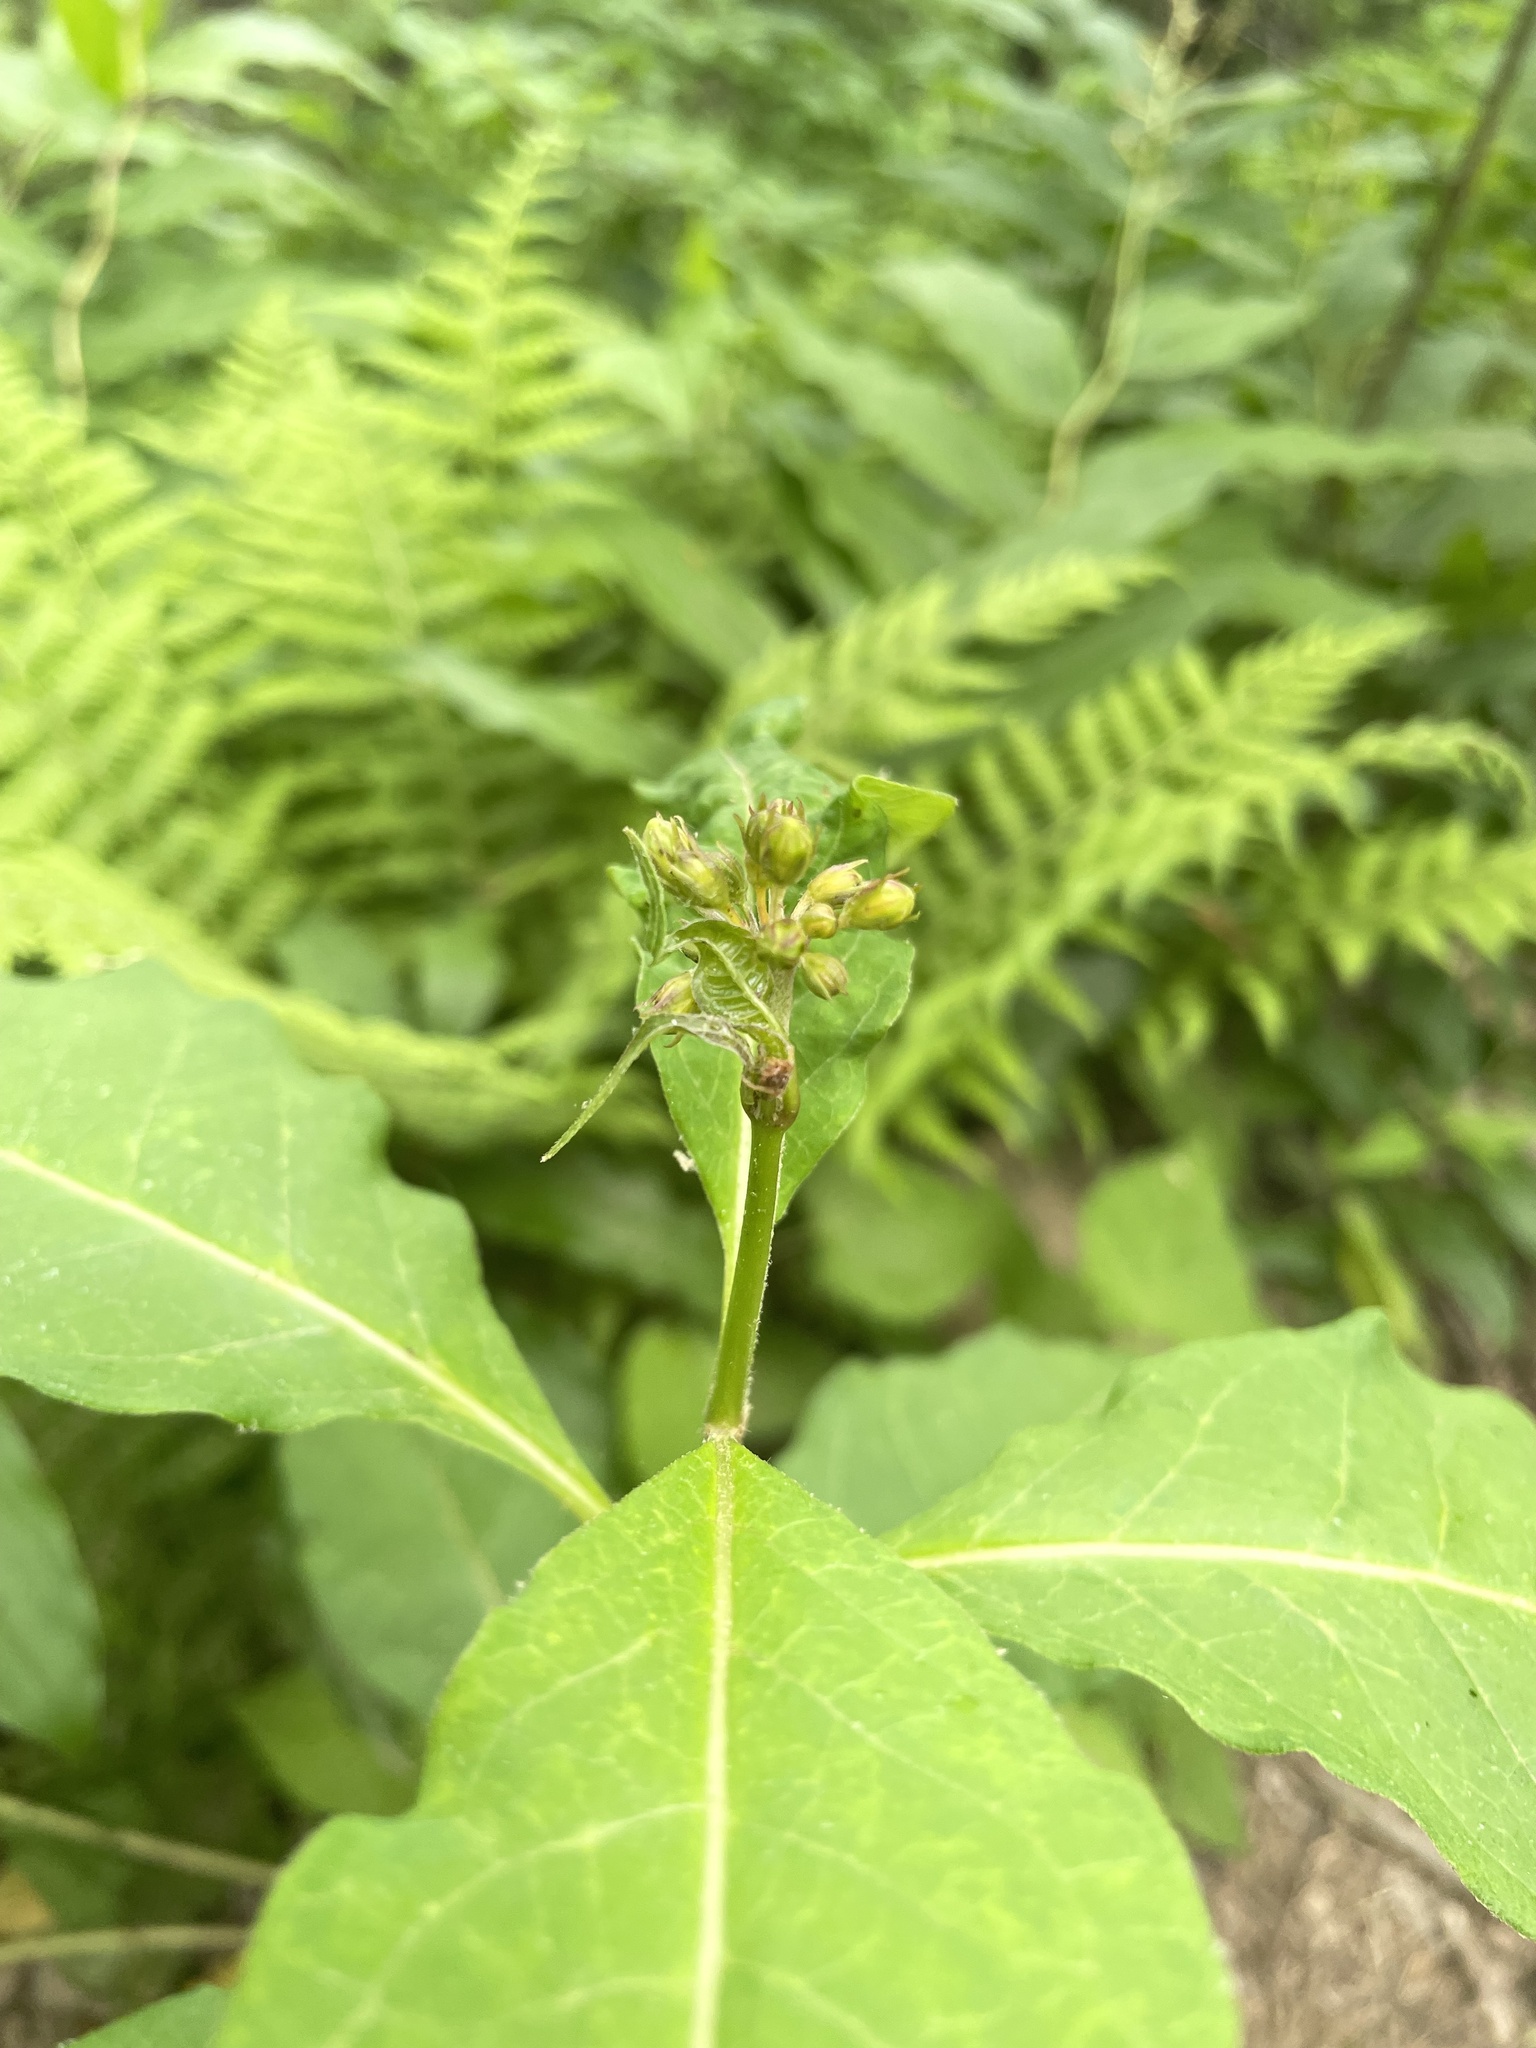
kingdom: Plantae
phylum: Tracheophyta
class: Magnoliopsida
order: Gentianales
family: Apocynaceae
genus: Asclepias
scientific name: Asclepias exaltata
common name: Poke milkweed
